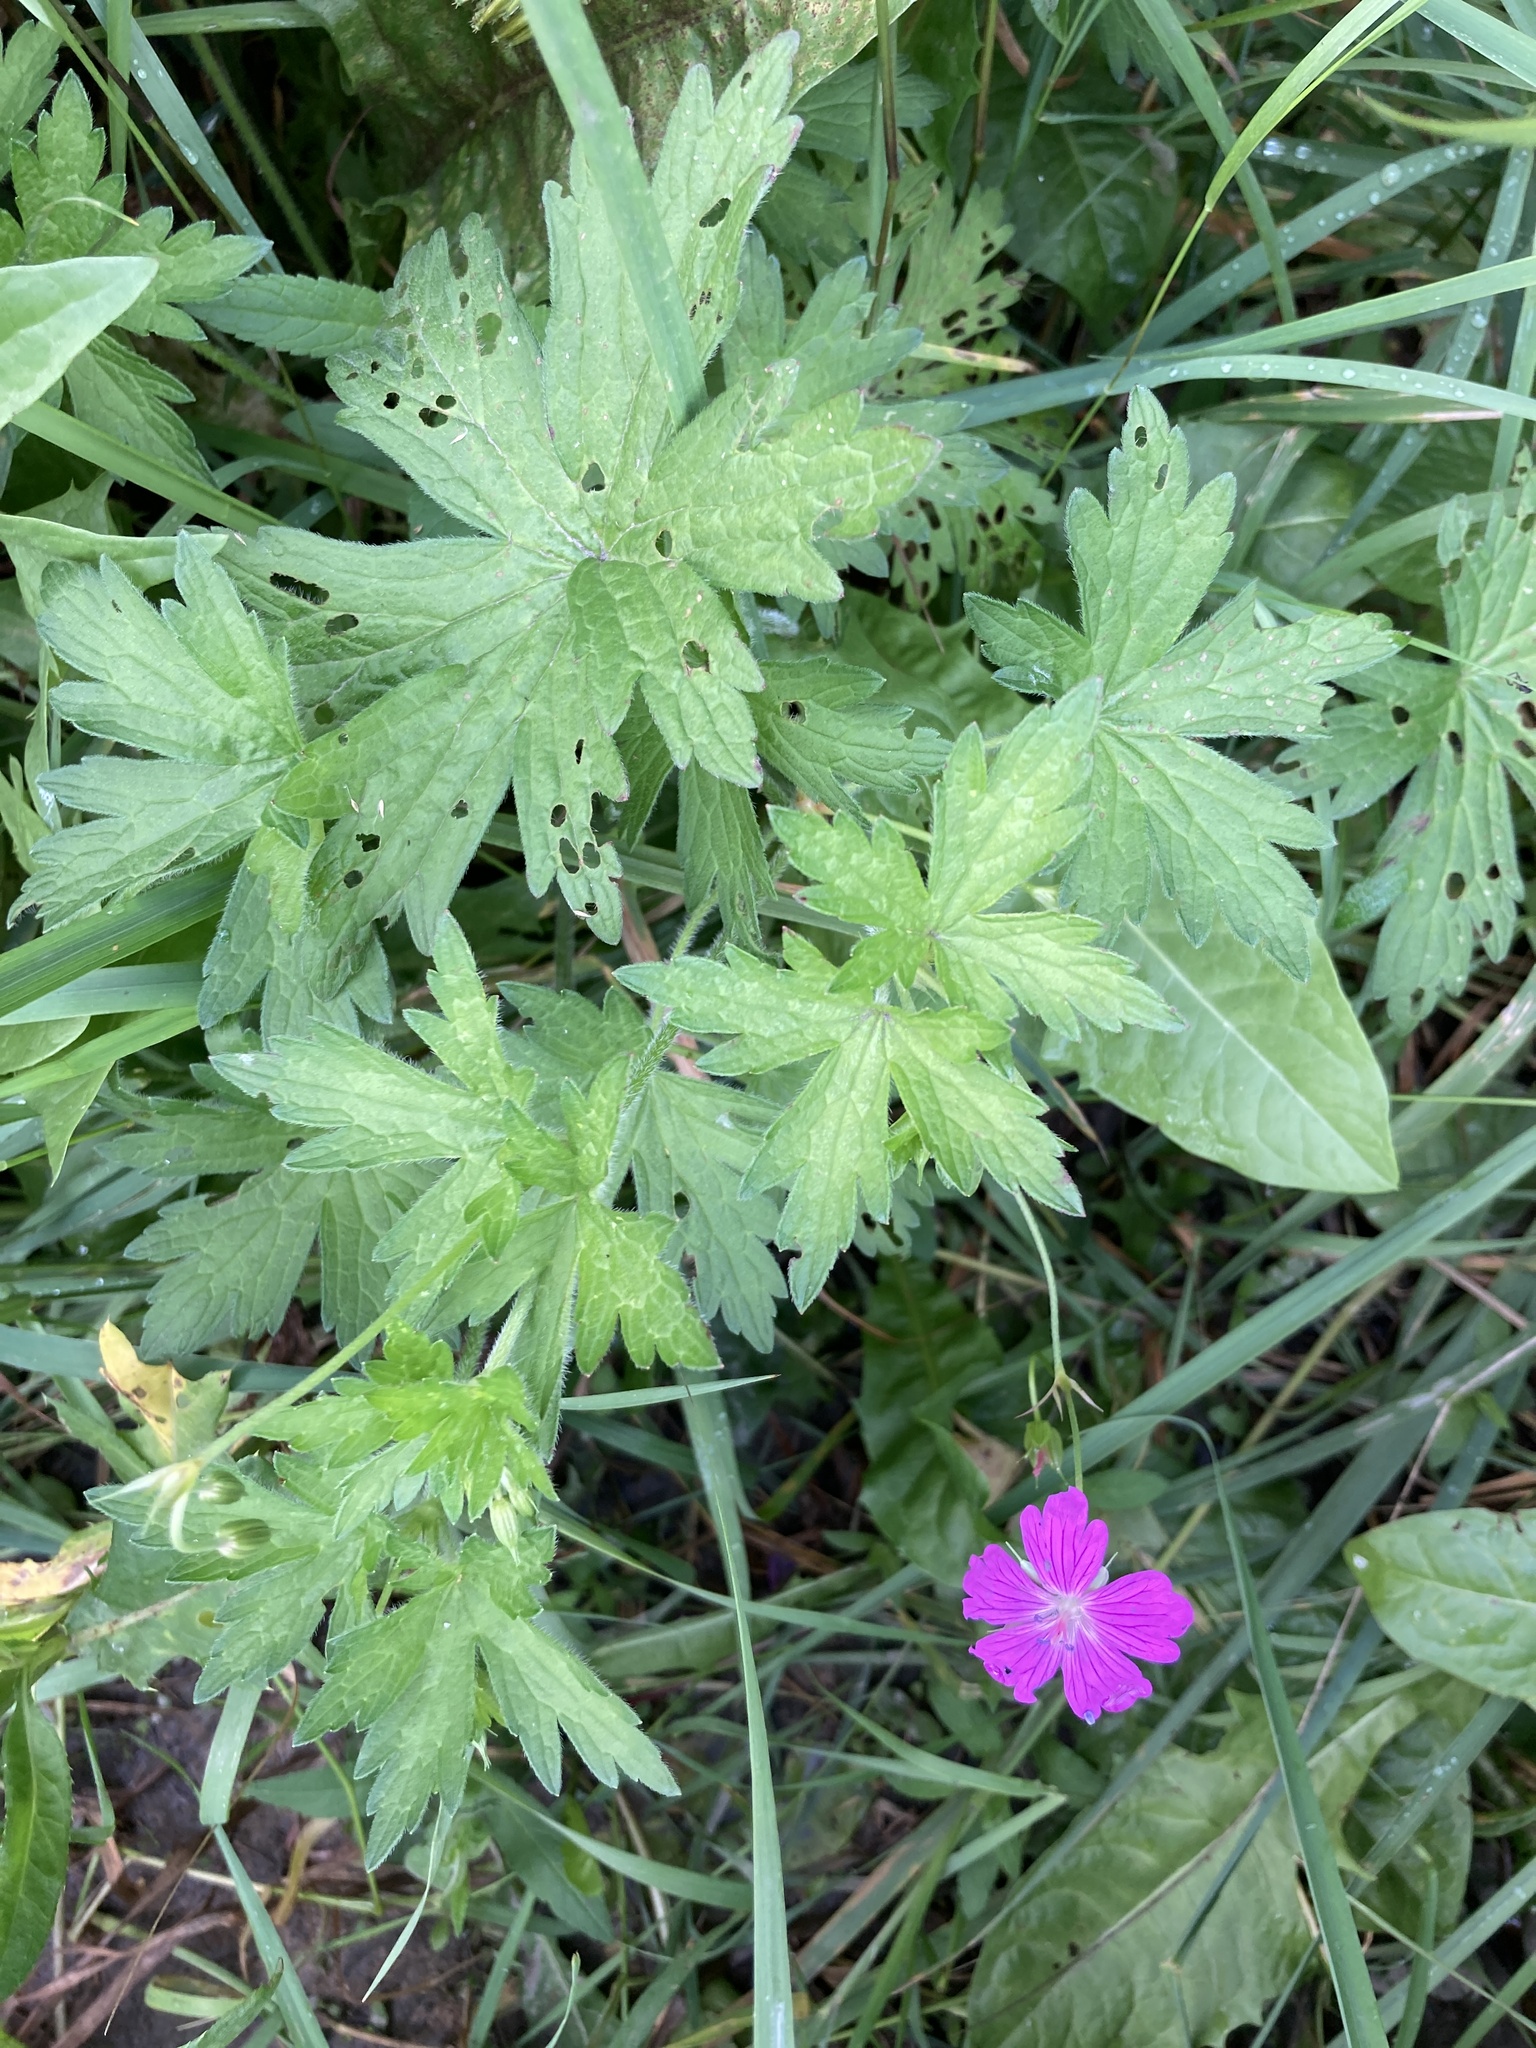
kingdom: Plantae
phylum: Tracheophyta
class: Magnoliopsida
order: Geraniales
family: Geraniaceae
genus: Geranium
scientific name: Geranium palustre
